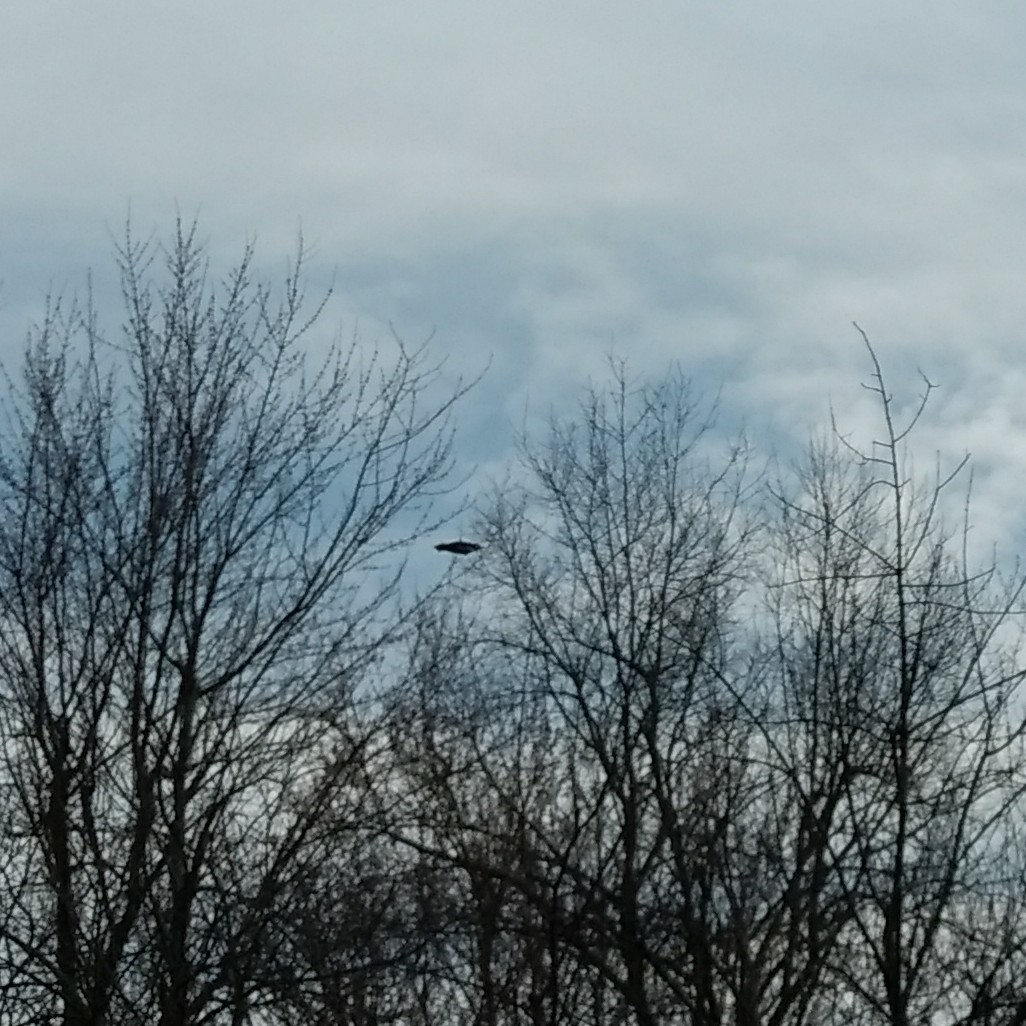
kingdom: Animalia
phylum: Chordata
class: Aves
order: Coraciiformes
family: Alcedinidae
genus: Megaceryle
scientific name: Megaceryle alcyon
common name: Belted kingfisher
